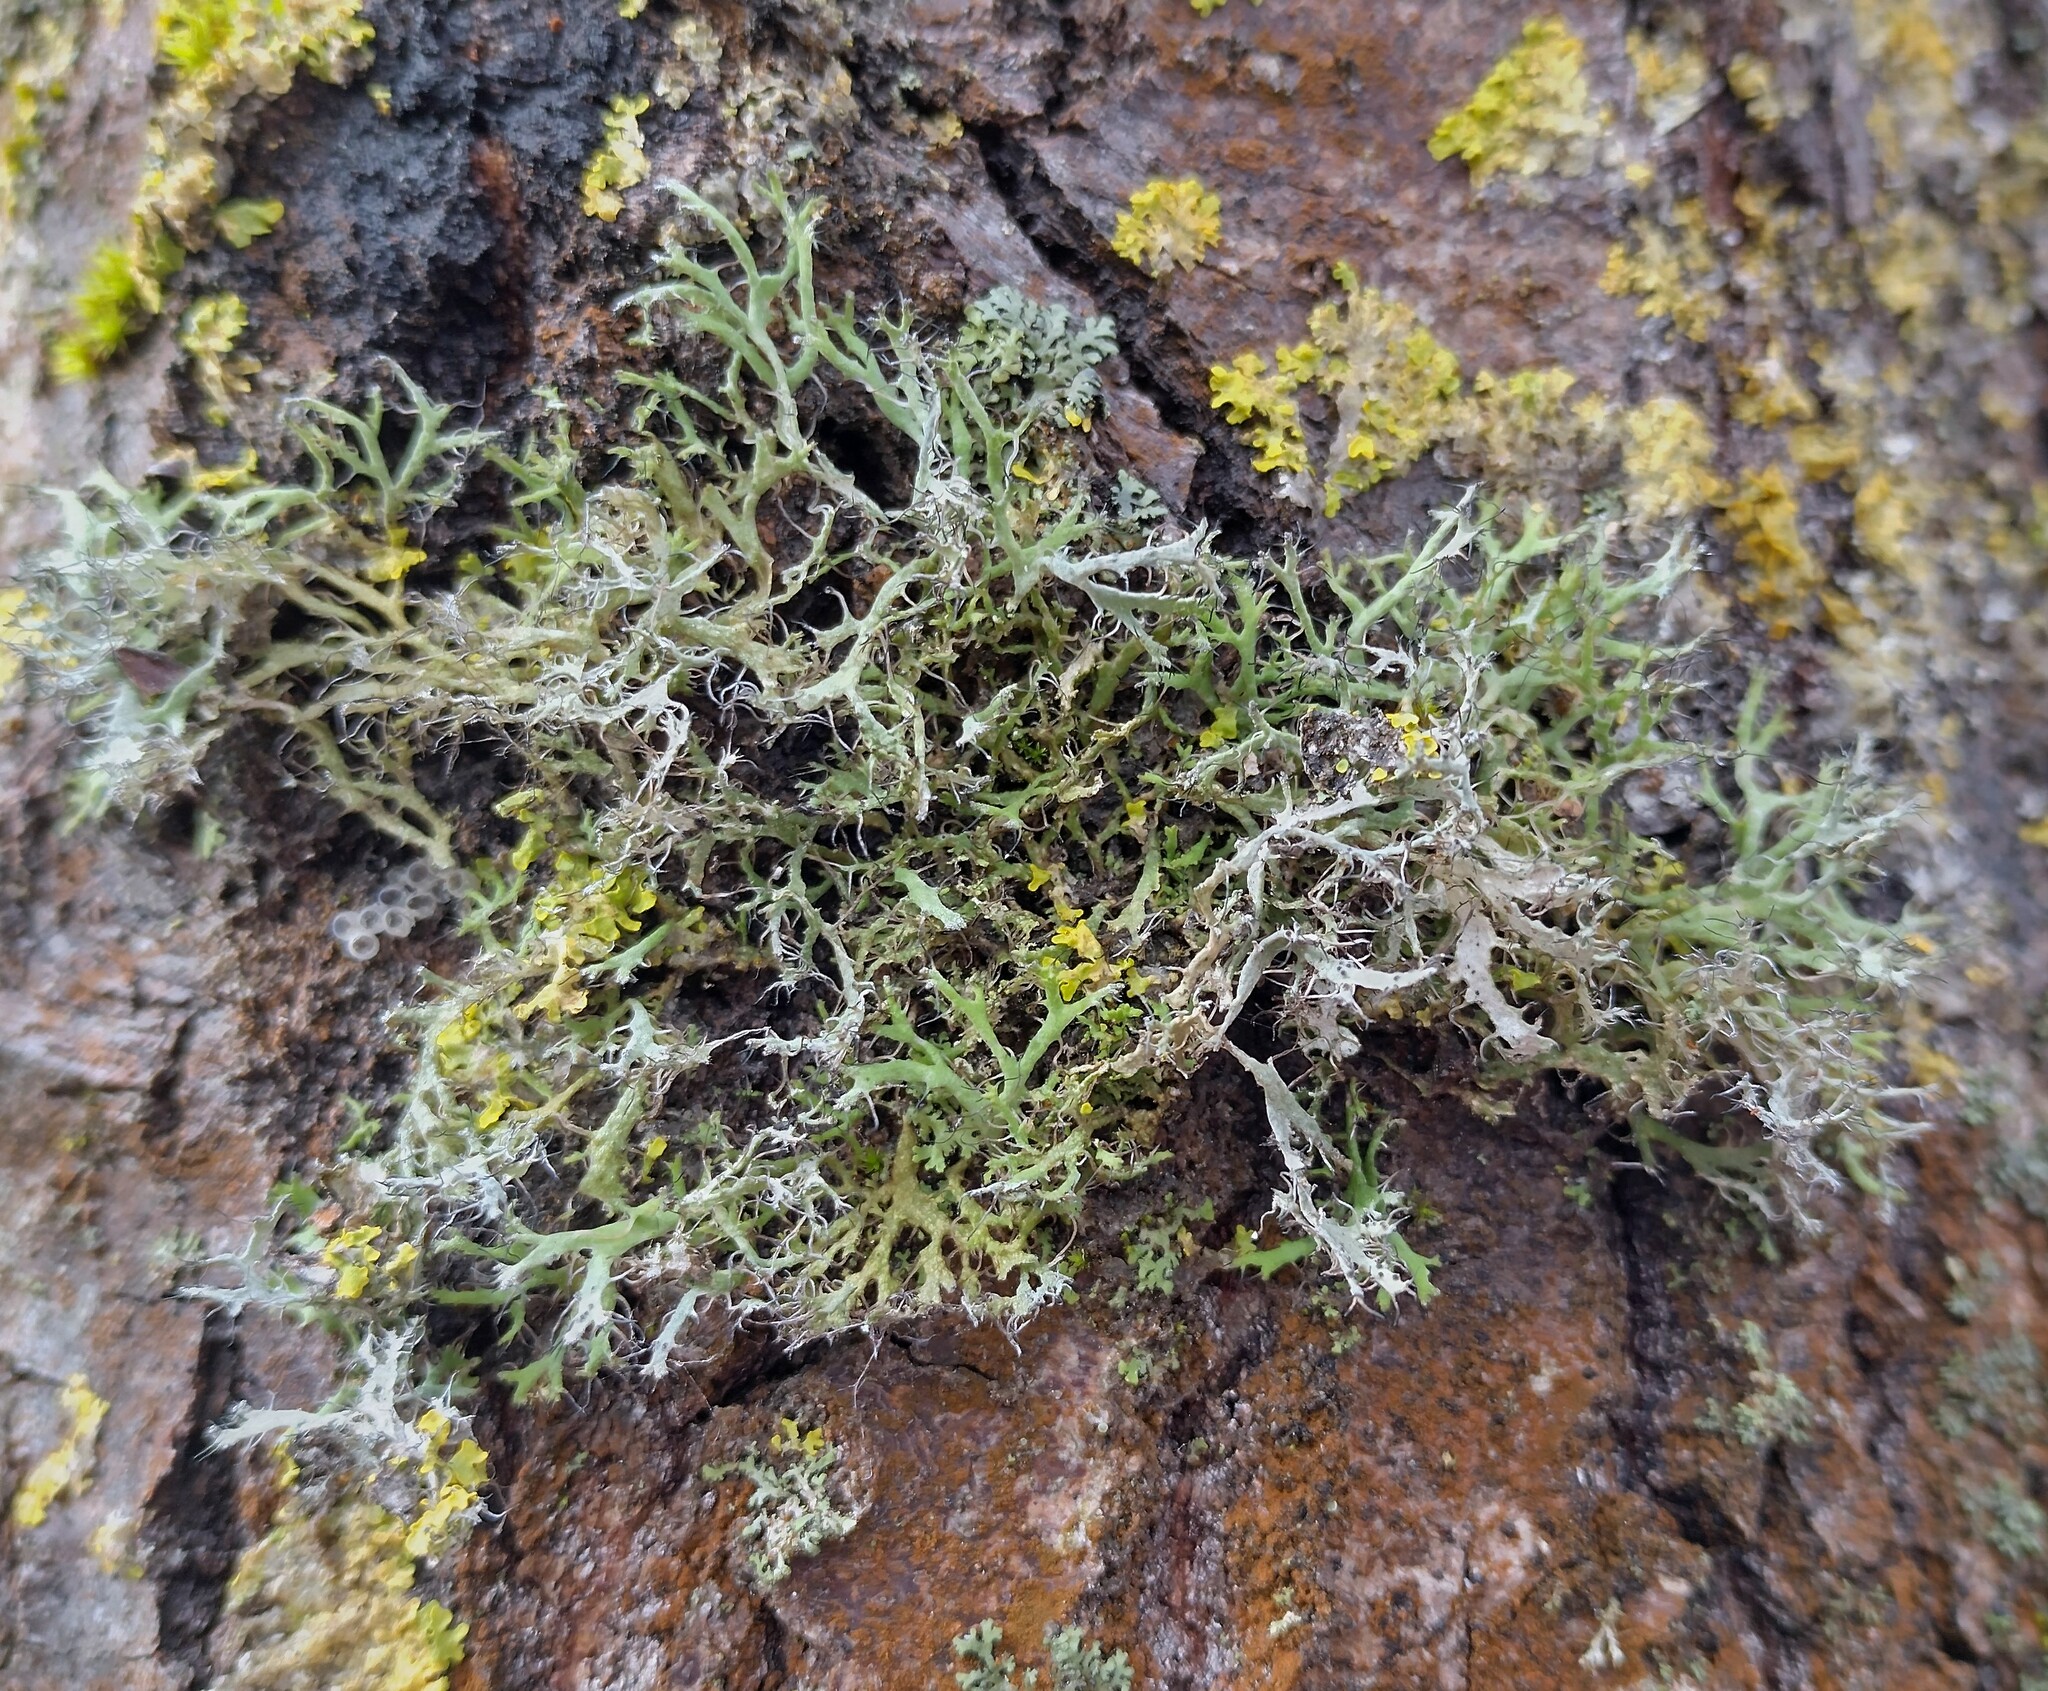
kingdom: Fungi
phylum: Ascomycota
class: Lecanoromycetes
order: Caliciales
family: Physciaceae
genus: Anaptychia
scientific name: Anaptychia ciliaris
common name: Great ciliated lichen
